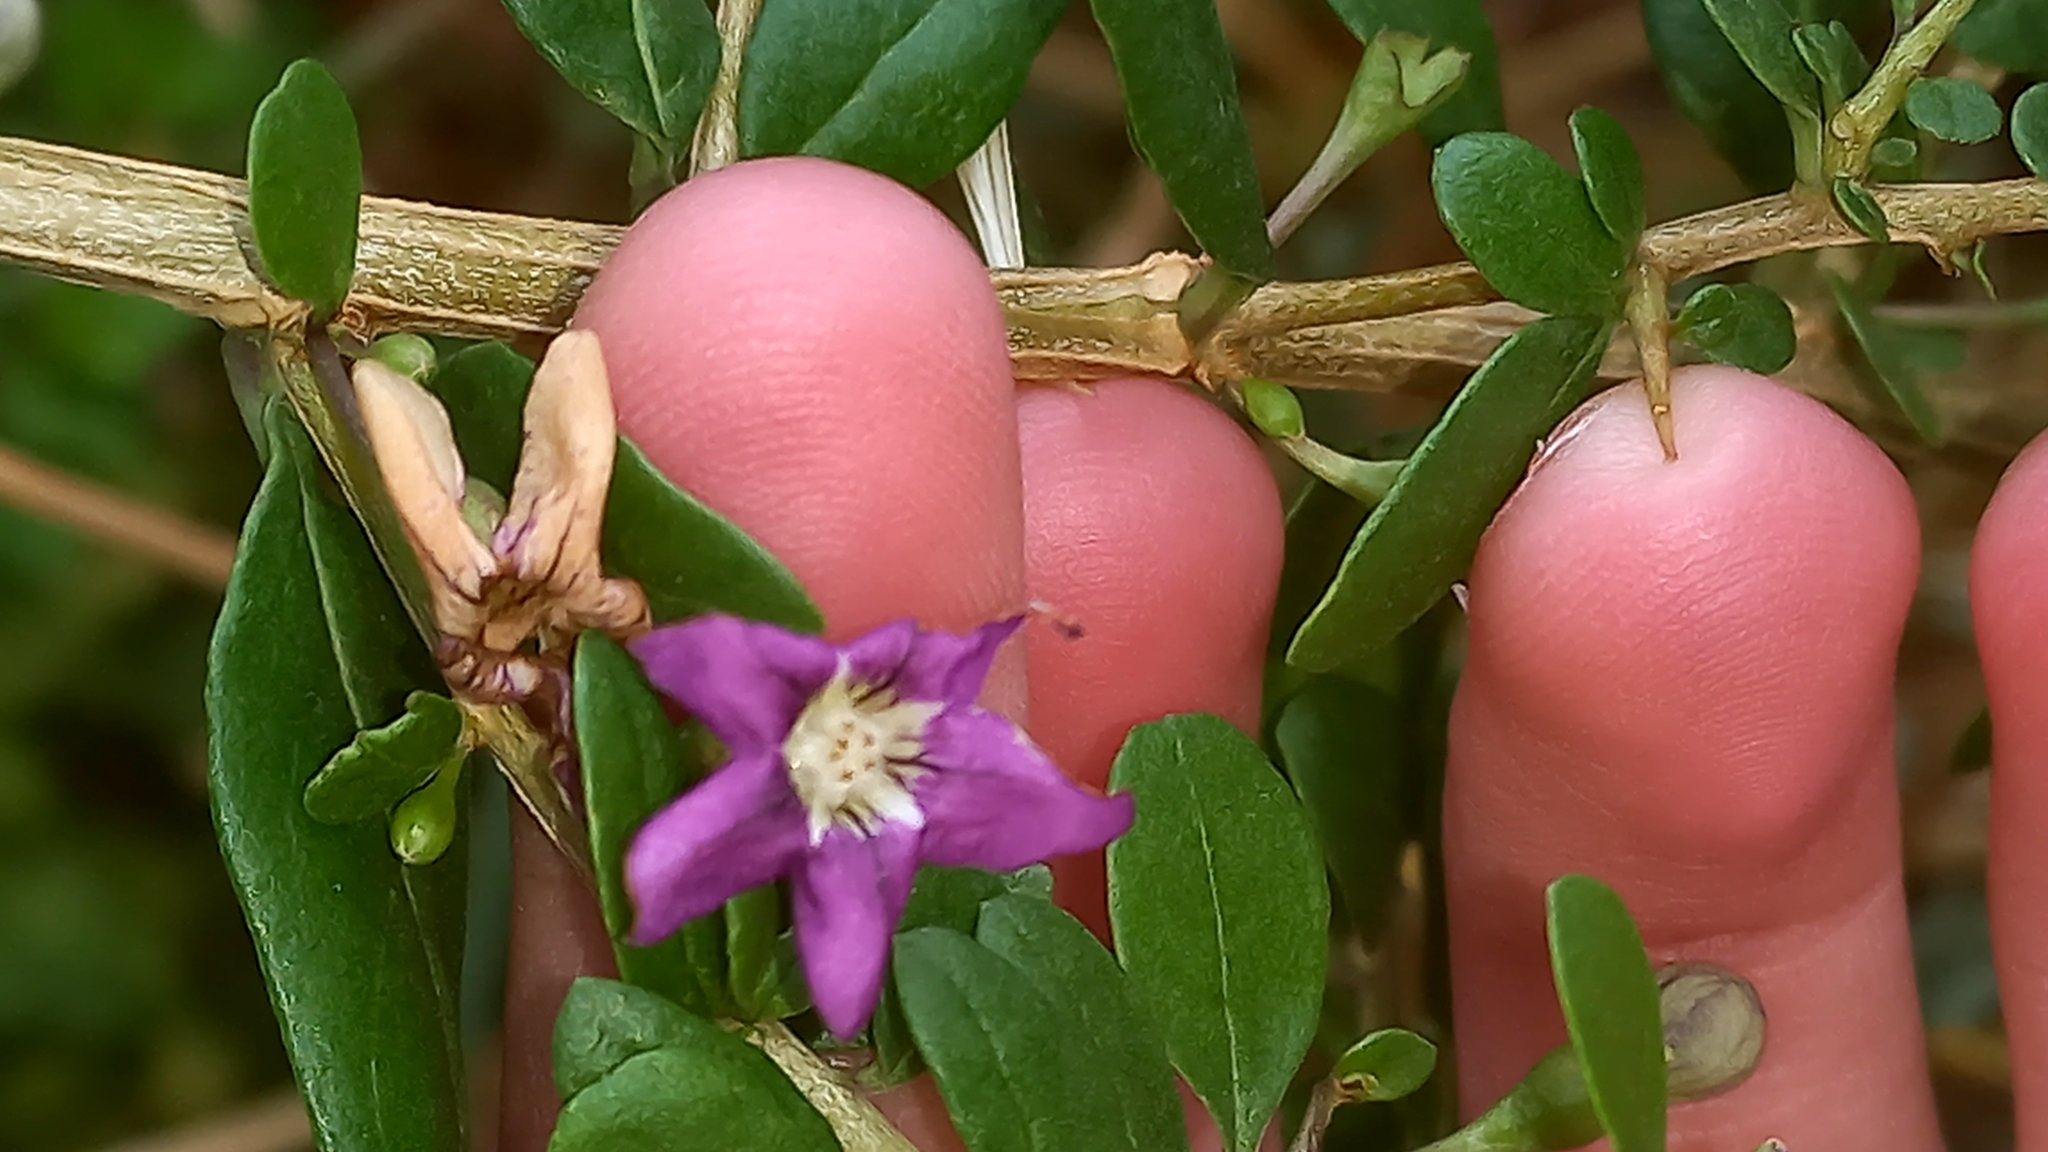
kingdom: Plantae
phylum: Tracheophyta
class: Magnoliopsida
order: Solanales
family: Solanaceae
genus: Lycium
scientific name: Lycium barbarum
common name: Duke of argyll's teaplant
